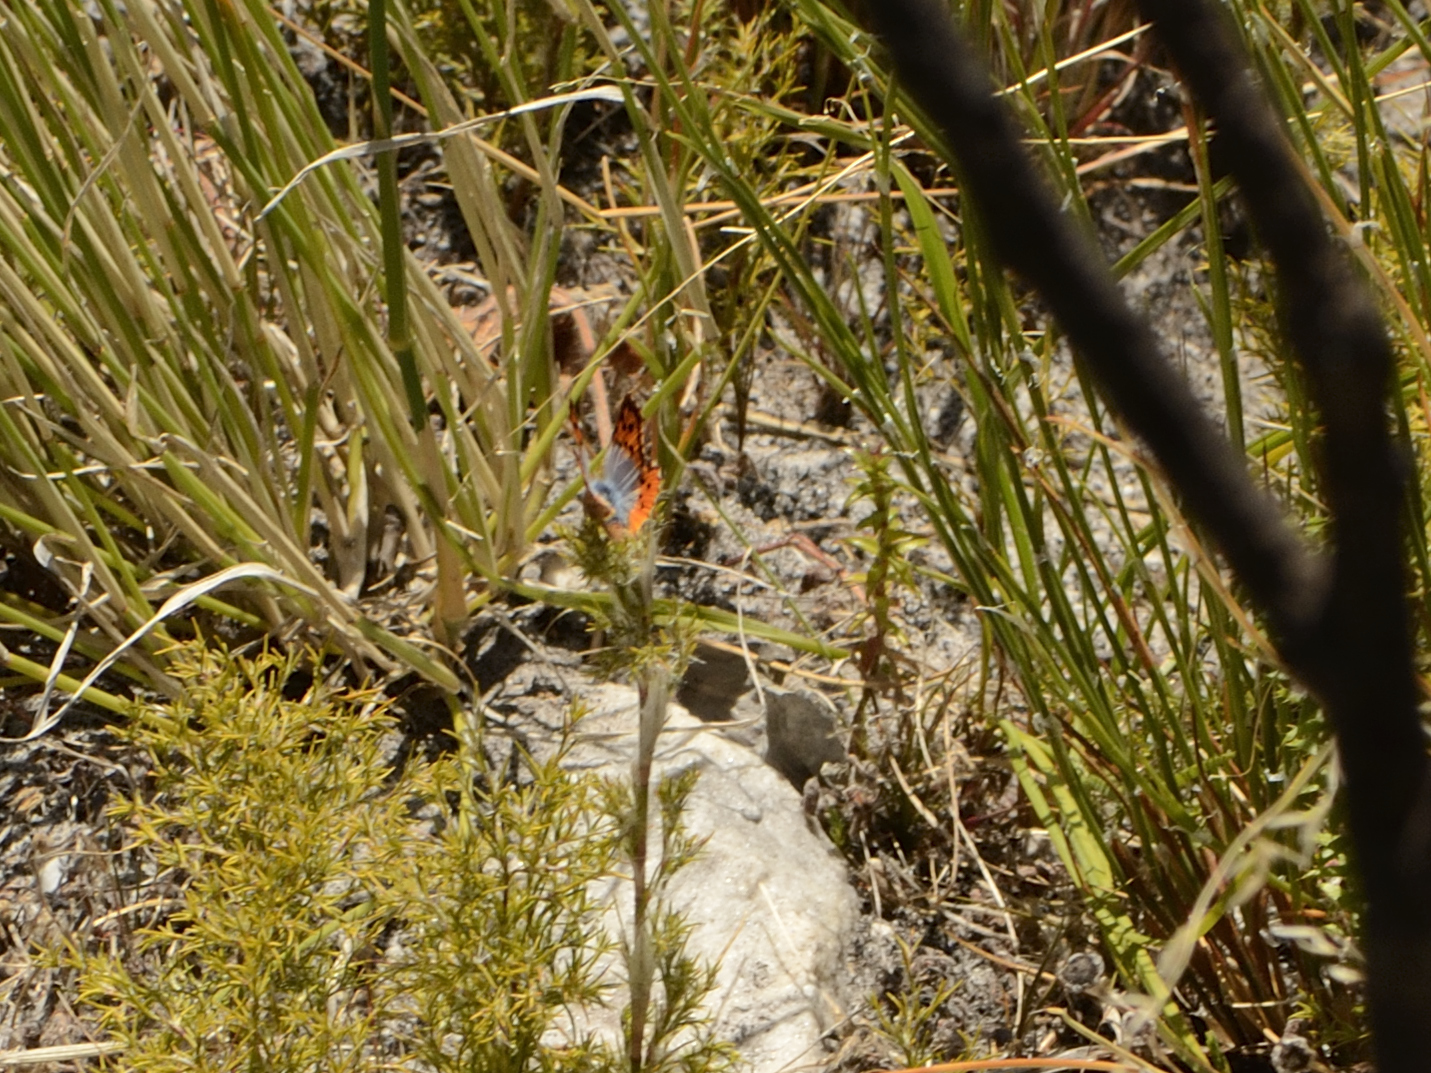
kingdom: Animalia
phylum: Arthropoda
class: Insecta
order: Lepidoptera
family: Lycaenidae
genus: Chrysoritis
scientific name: Chrysoritis thysbe
